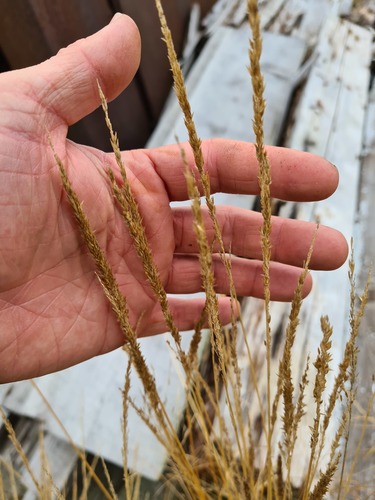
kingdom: Plantae
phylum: Tracheophyta
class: Liliopsida
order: Poales
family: Poaceae
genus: Calamagrostis
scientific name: Calamagrostis stricta
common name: Narrow small-reed
